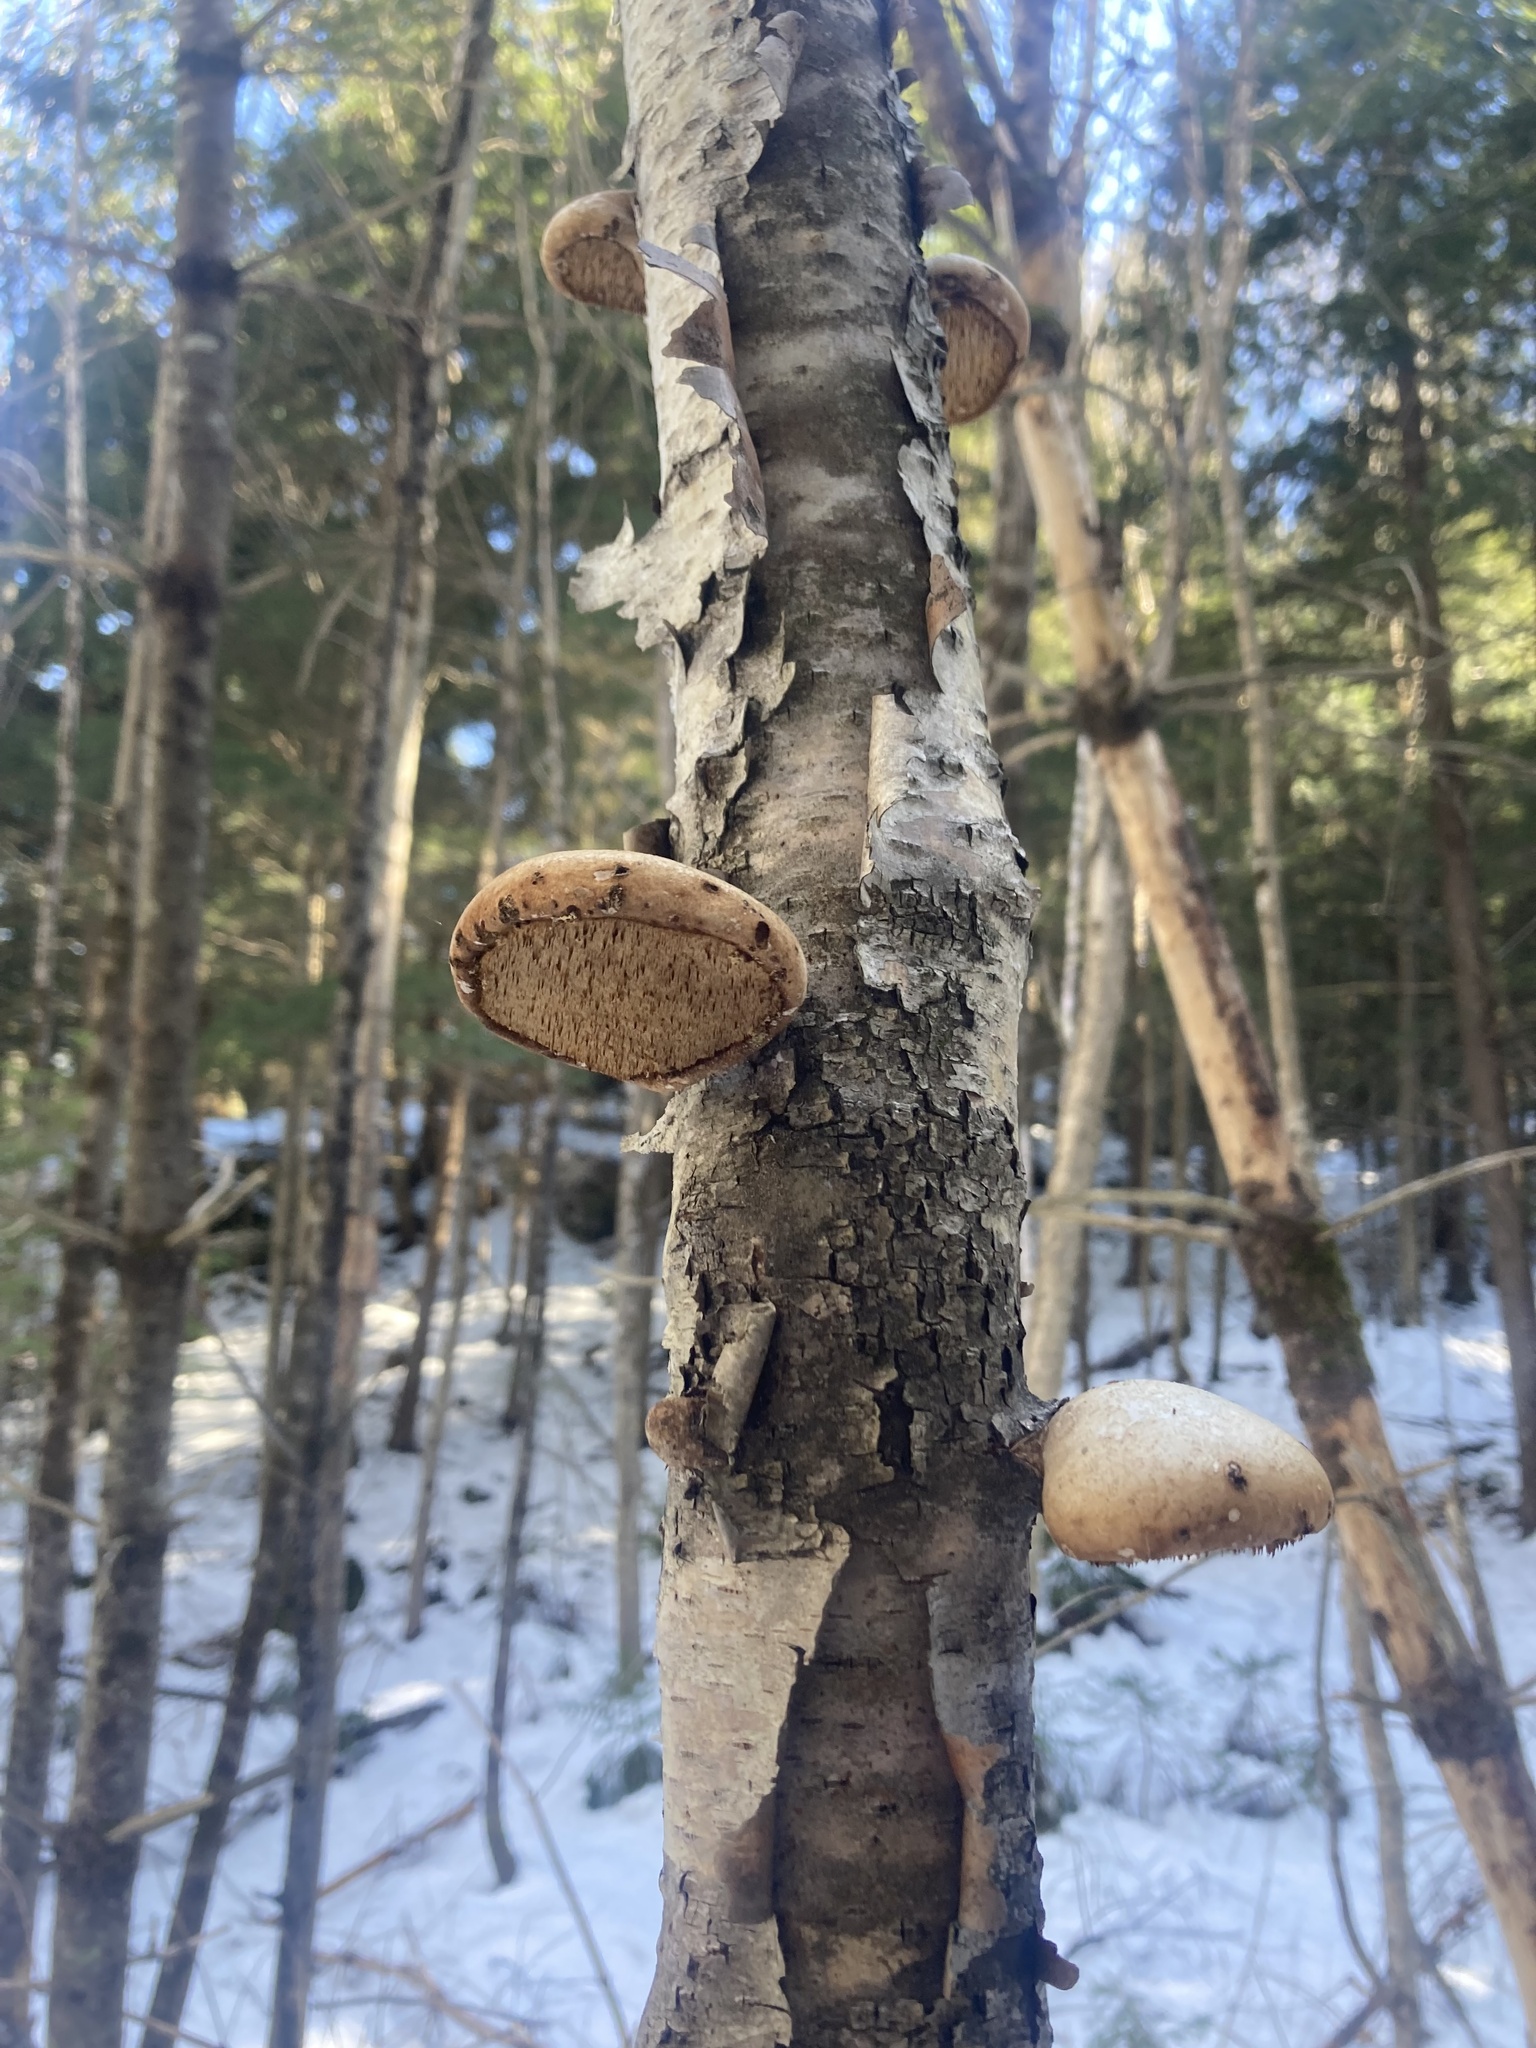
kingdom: Fungi
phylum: Basidiomycota
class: Agaricomycetes
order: Polyporales
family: Fomitopsidaceae
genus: Fomitopsis
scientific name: Fomitopsis betulina
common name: Birch polypore
